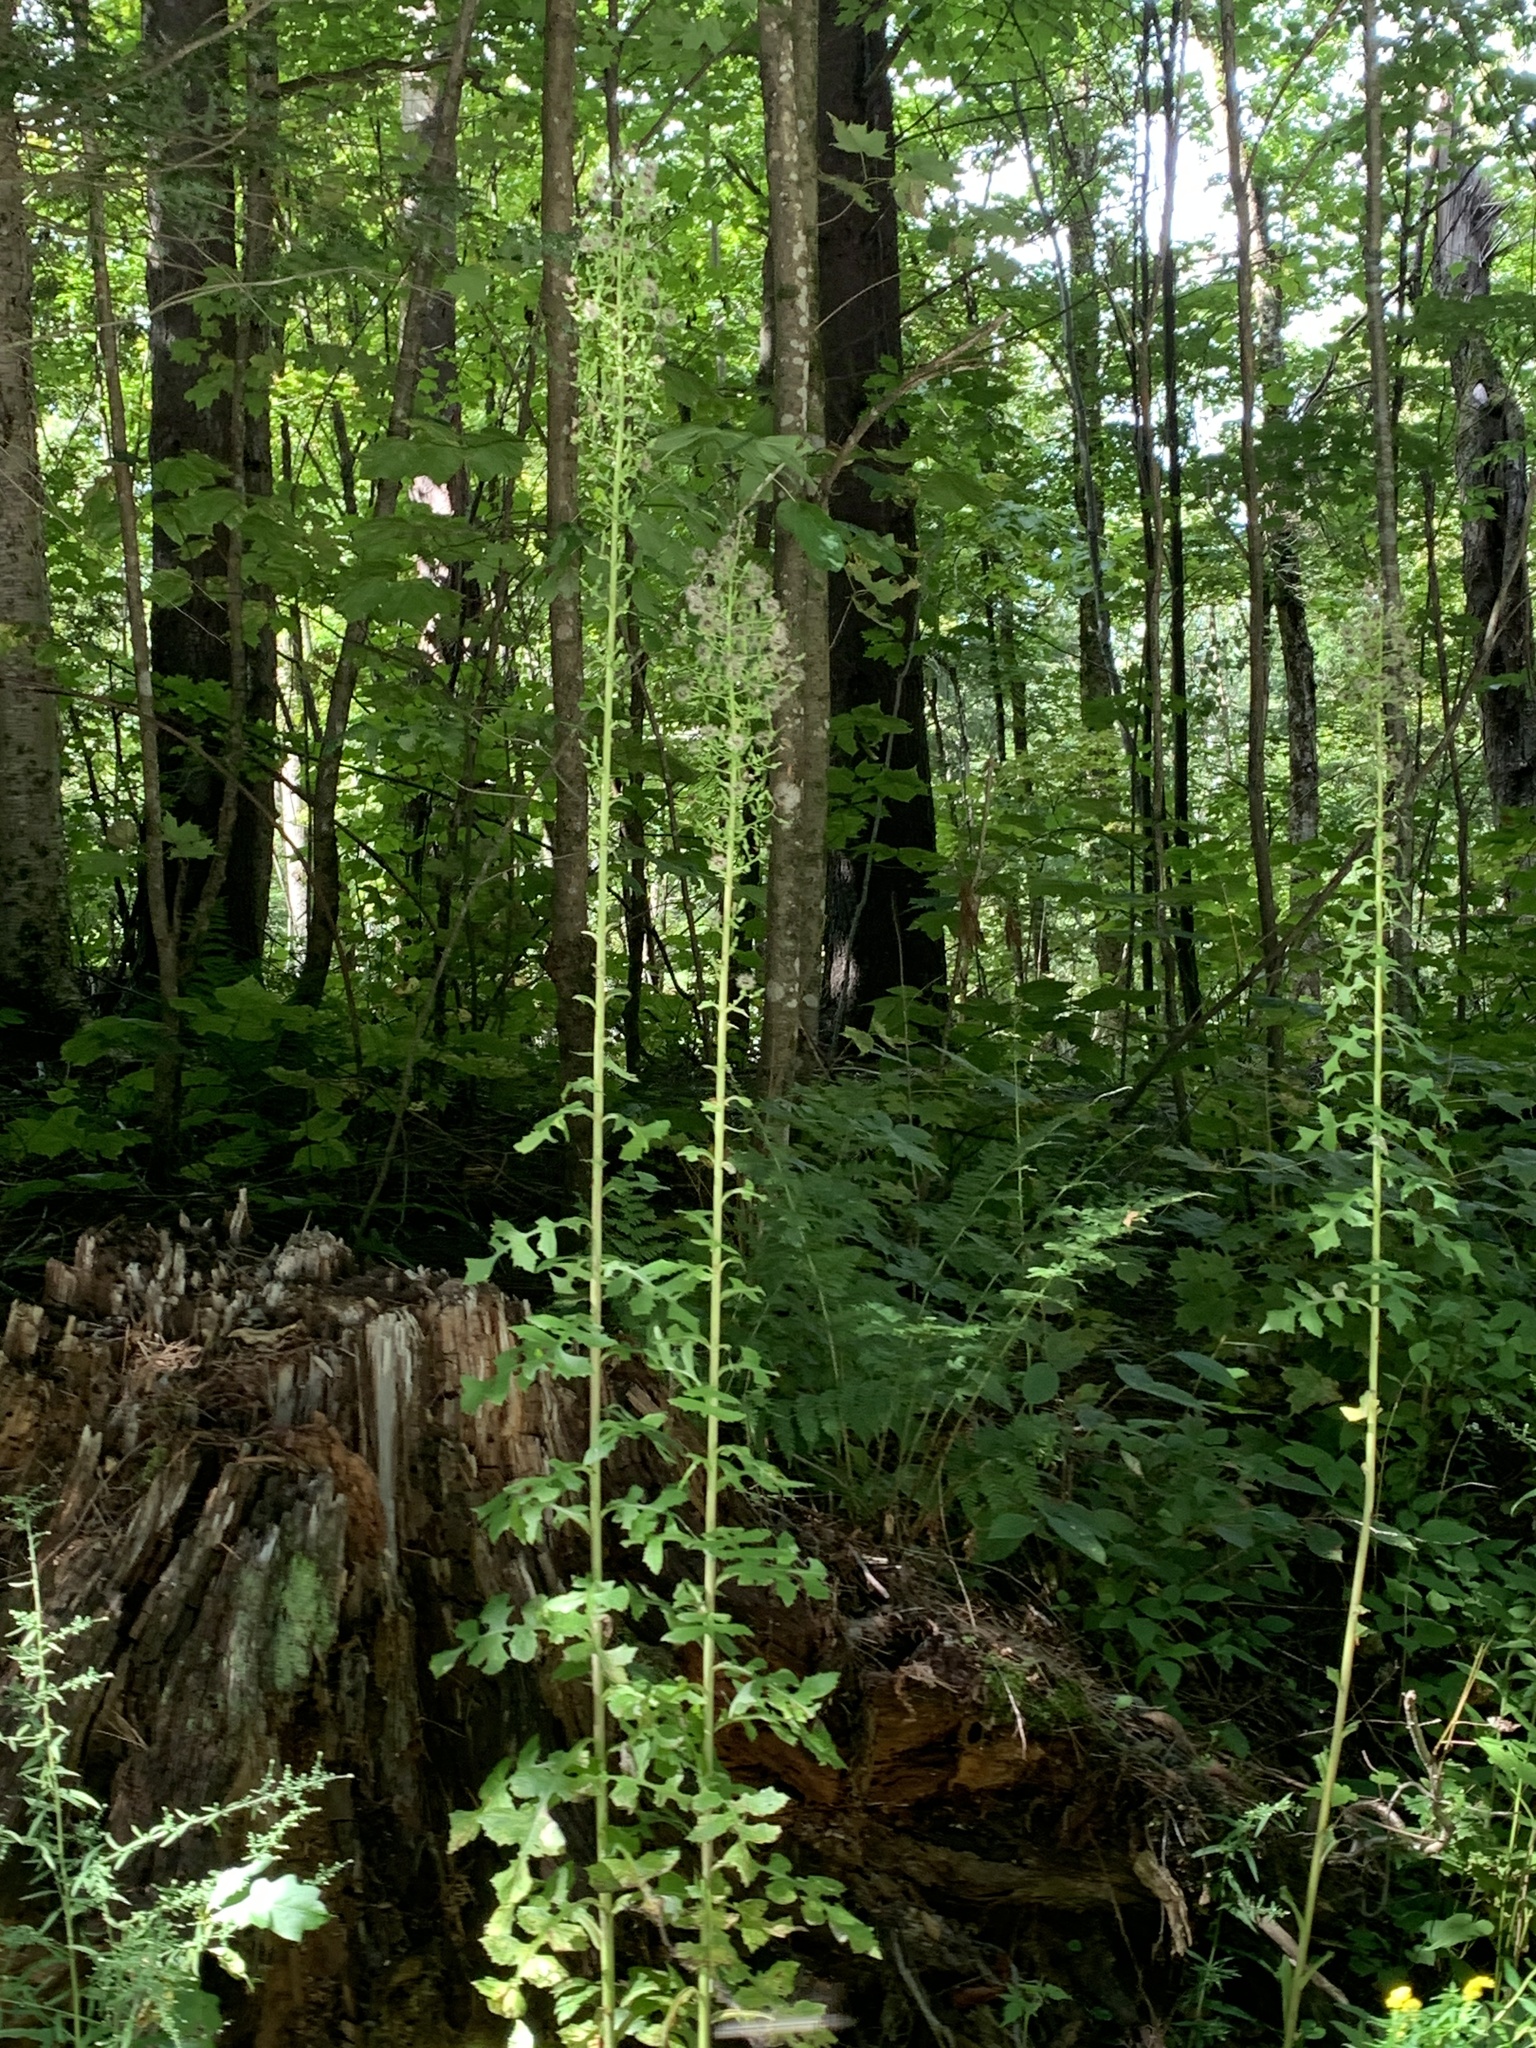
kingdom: Plantae
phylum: Tracheophyta
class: Magnoliopsida
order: Asterales
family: Asteraceae
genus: Lactuca
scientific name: Lactuca biennis
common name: Blue wood lettuce
